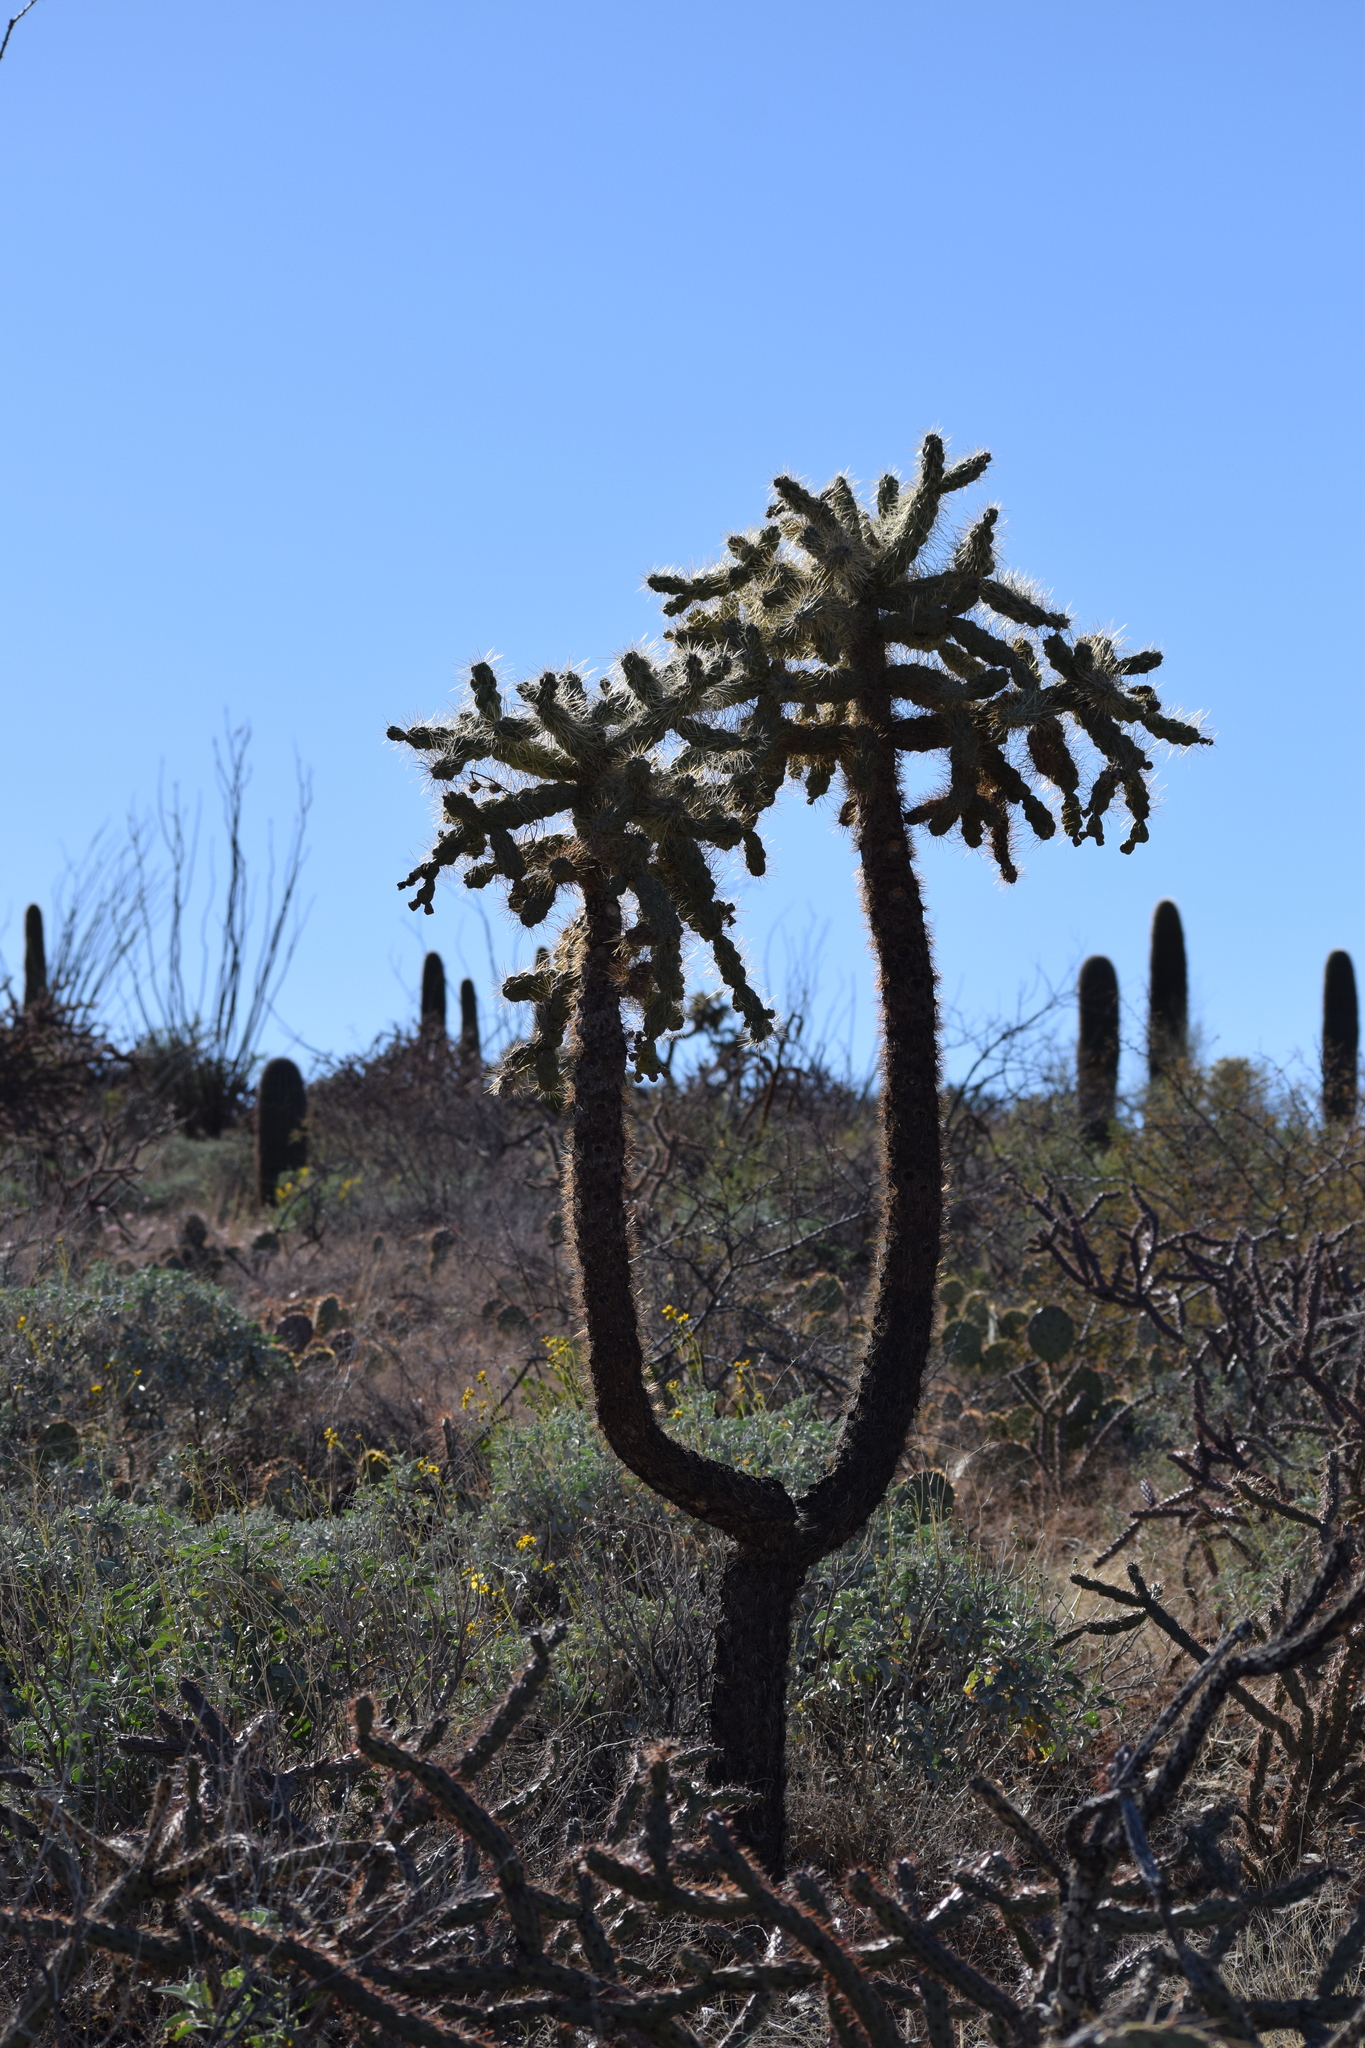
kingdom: Plantae
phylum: Tracheophyta
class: Magnoliopsida
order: Caryophyllales
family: Cactaceae
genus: Cylindropuntia
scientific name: Cylindropuntia fulgida
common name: Jumping cholla
